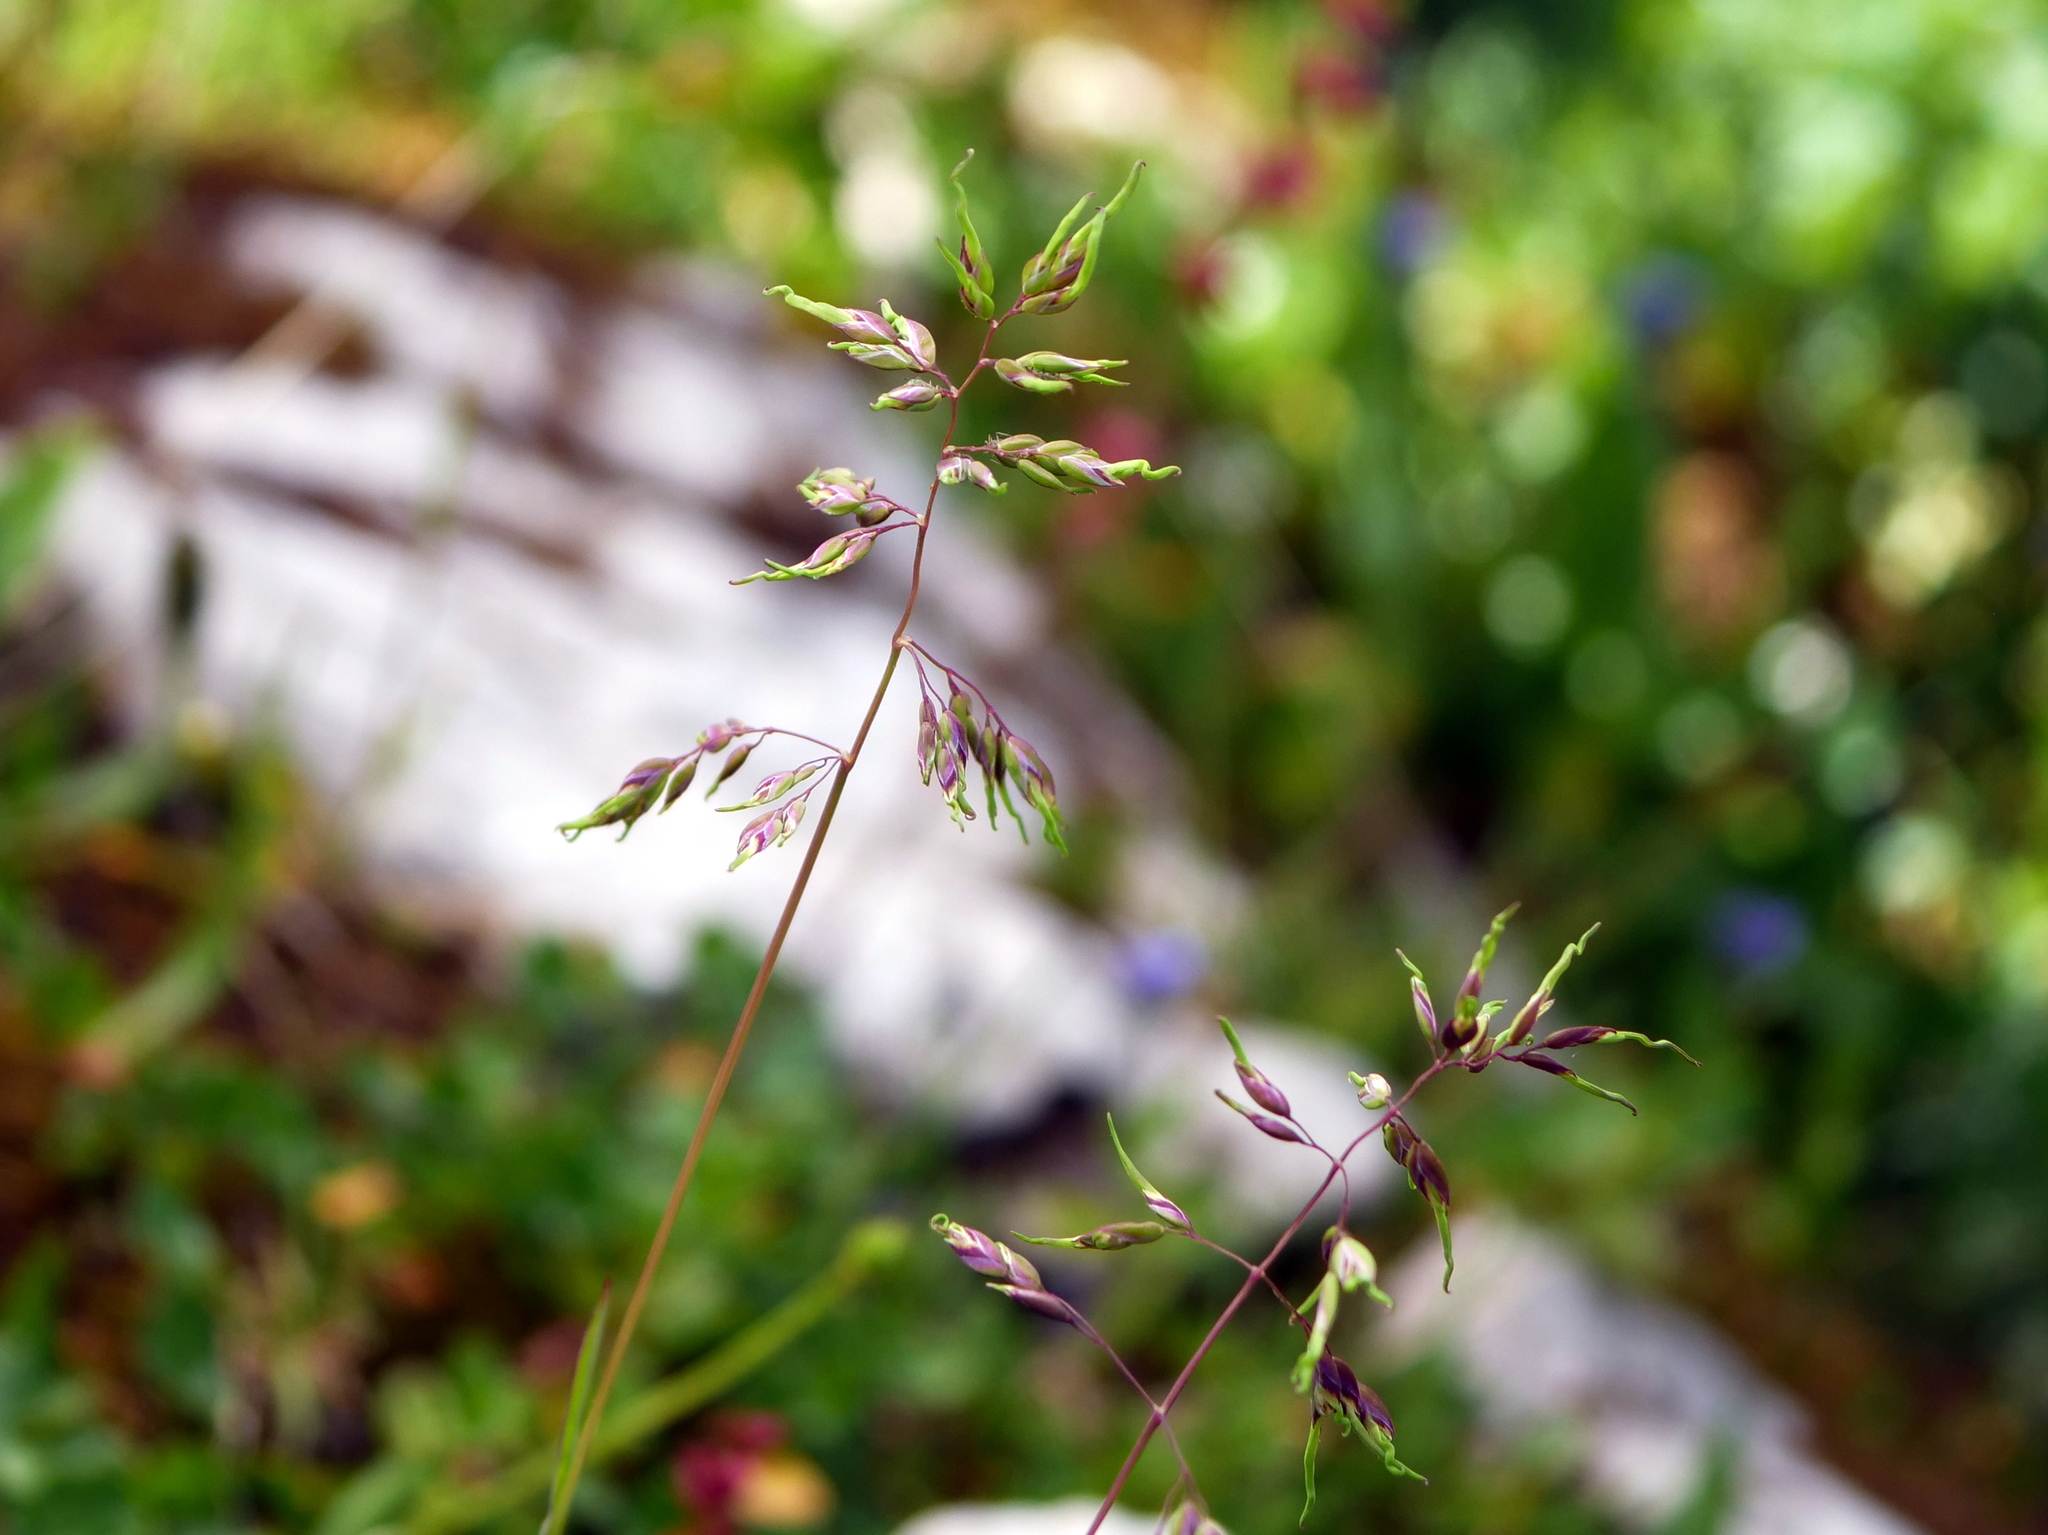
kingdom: Plantae
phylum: Tracheophyta
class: Liliopsida
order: Poales
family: Poaceae
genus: Poa
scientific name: Poa alpina
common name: Alpine bluegrass
